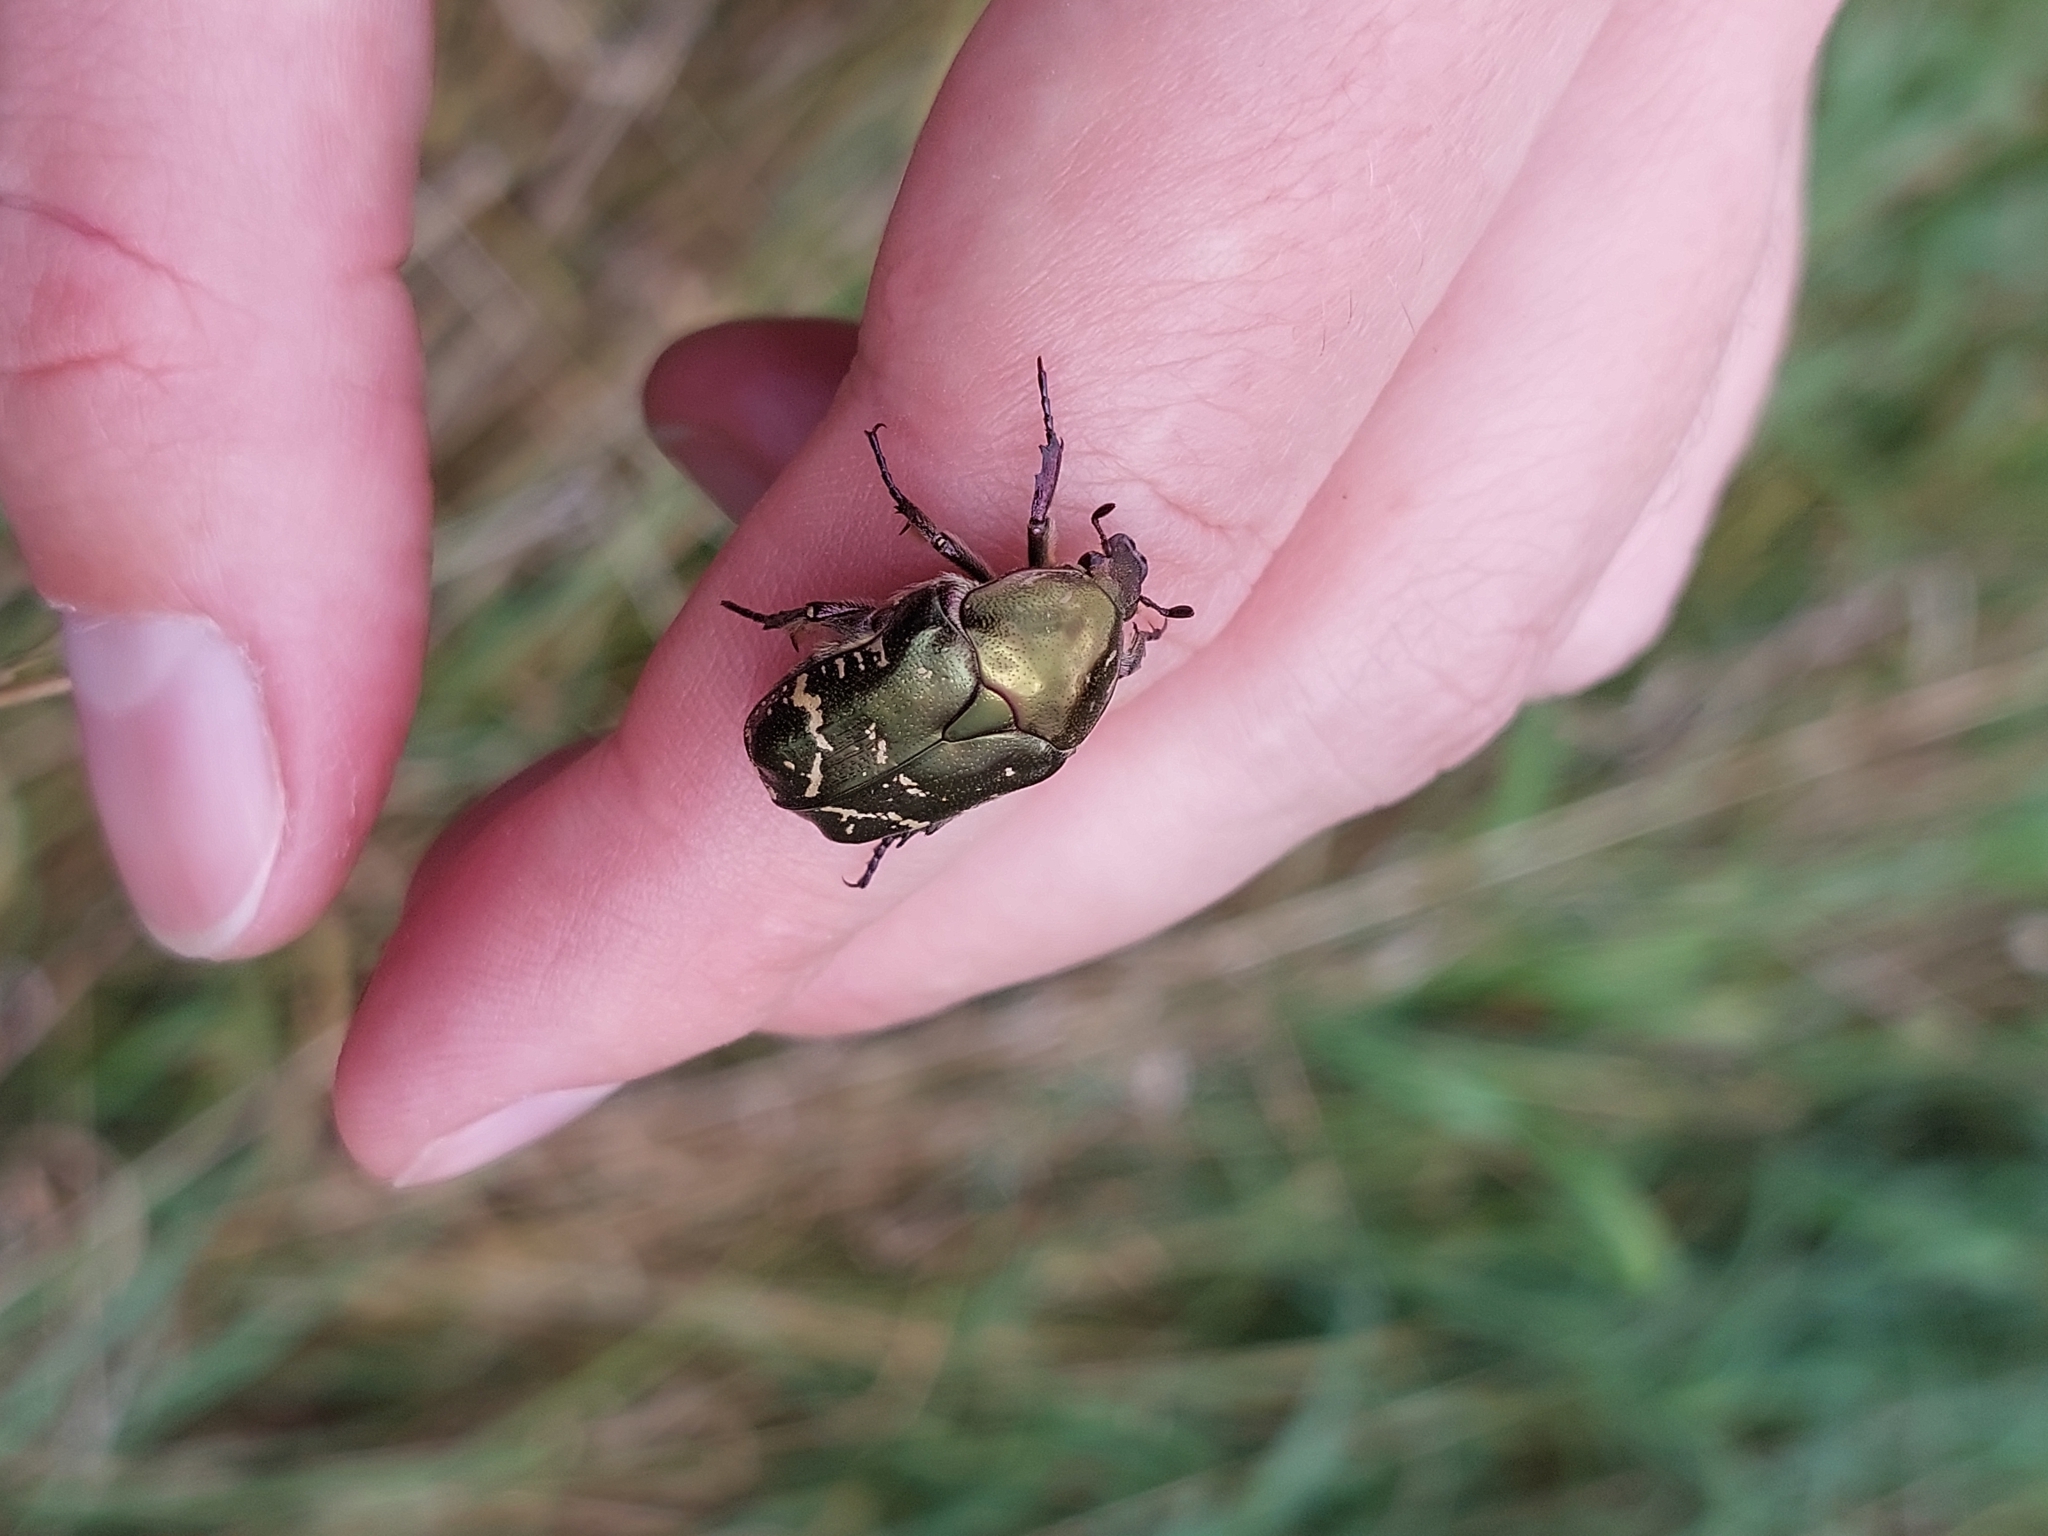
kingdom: Animalia
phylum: Arthropoda
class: Insecta
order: Coleoptera
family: Scarabaeidae
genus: Protaetia
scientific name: Protaetia cuprea
